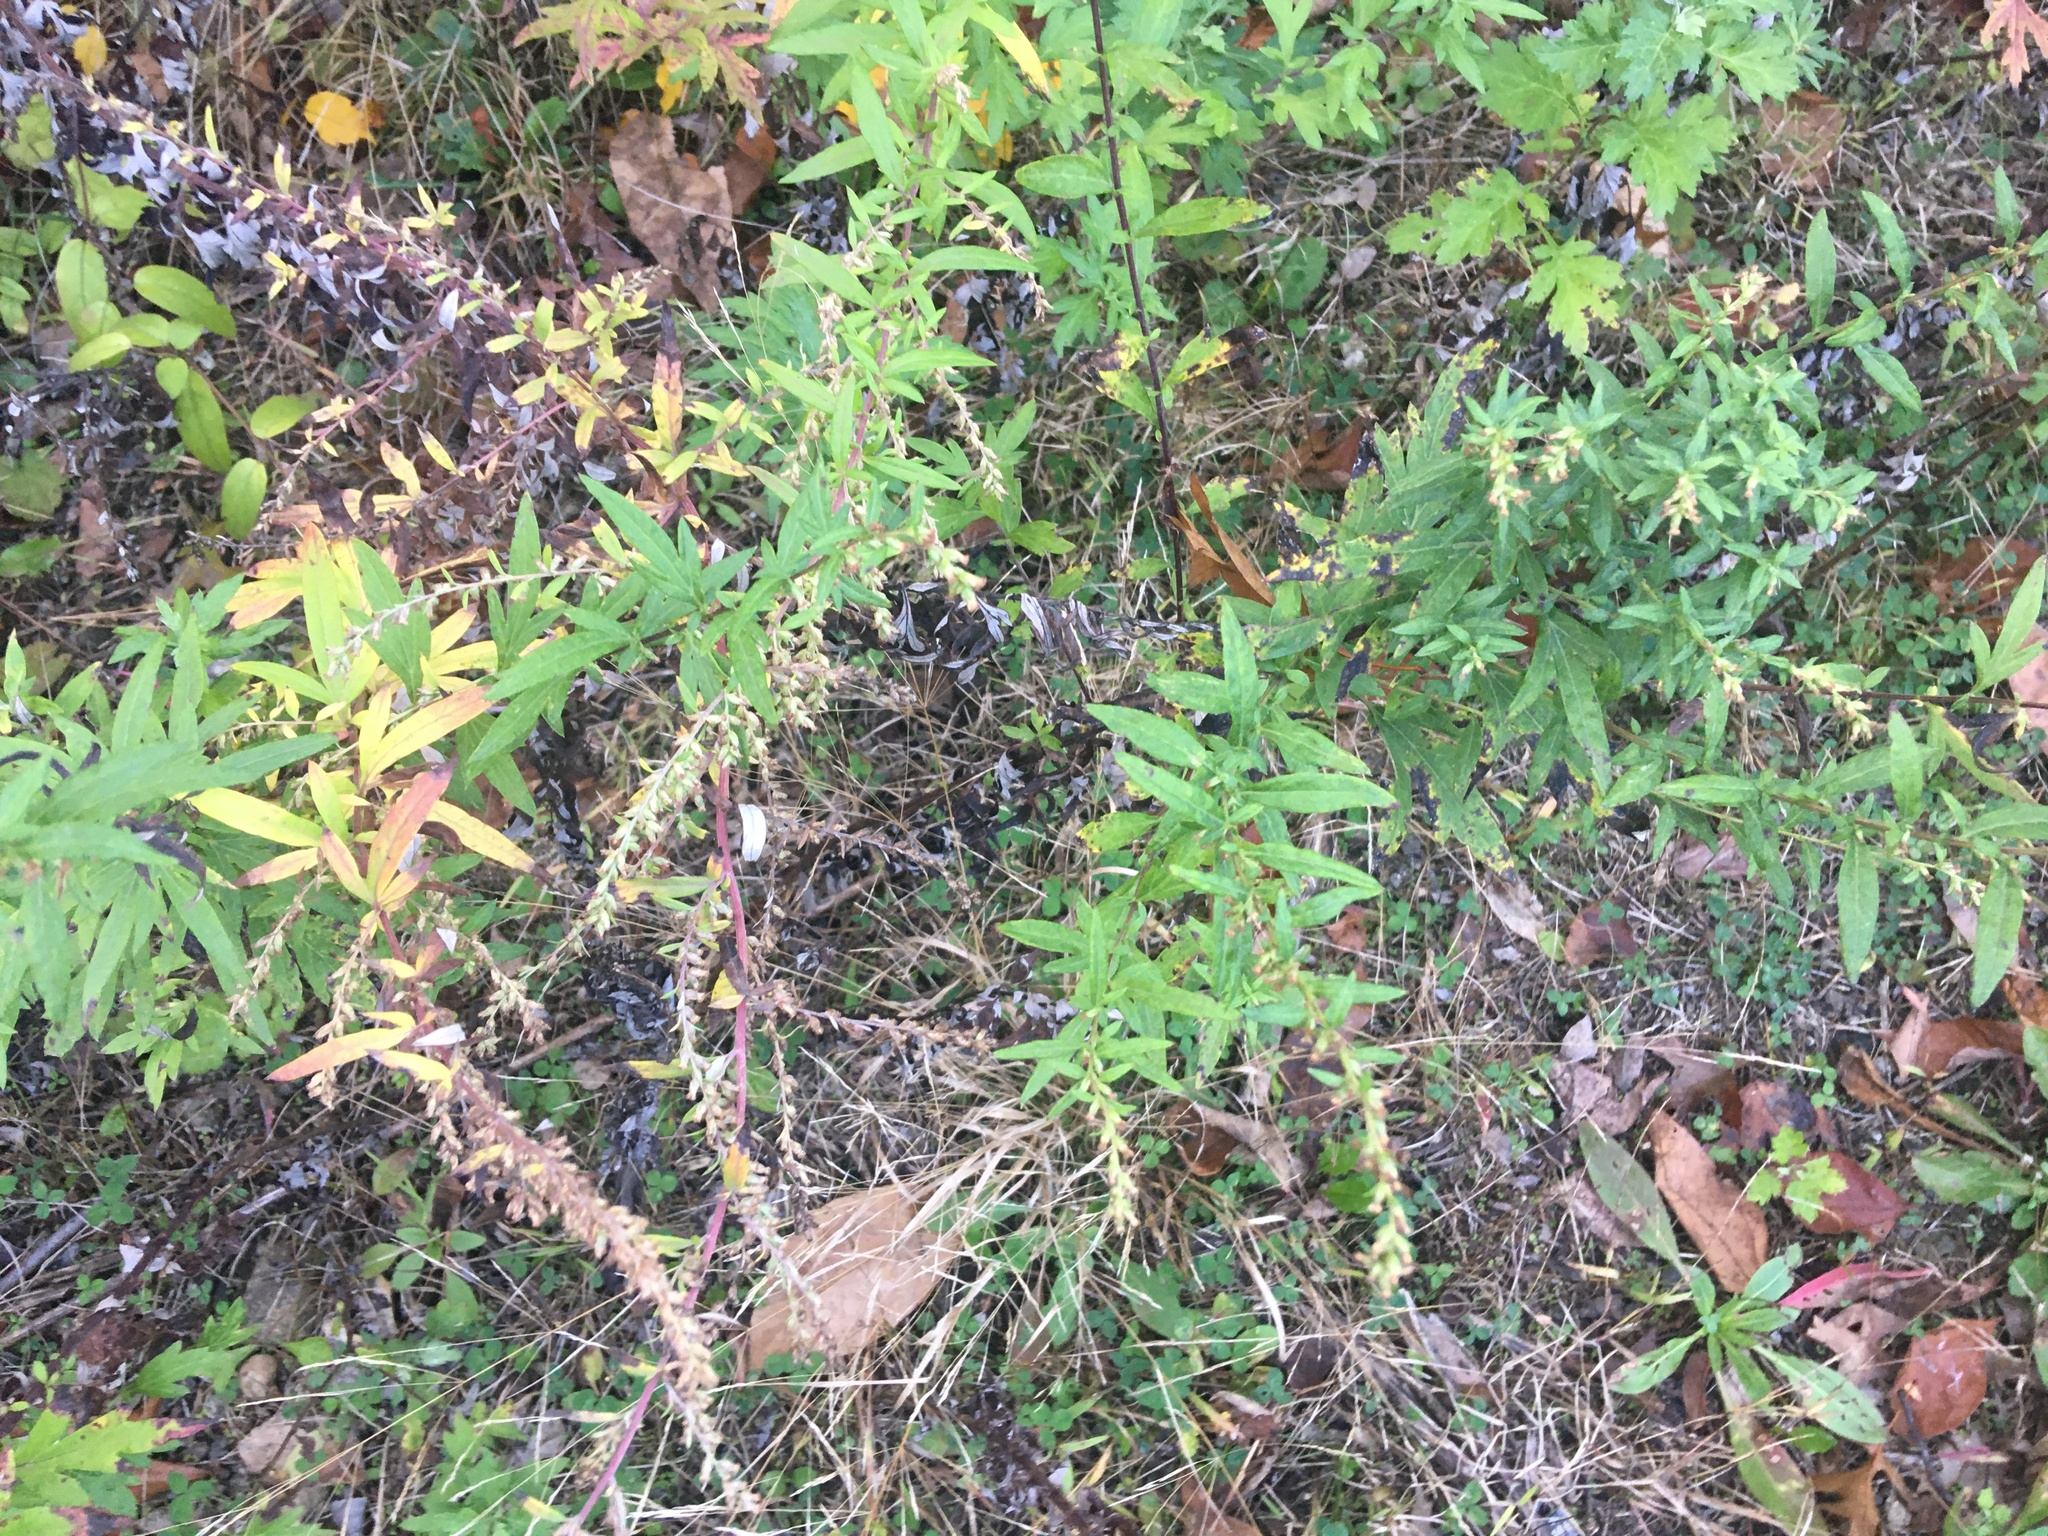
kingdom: Plantae
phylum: Tracheophyta
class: Magnoliopsida
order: Asterales
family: Asteraceae
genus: Artemisia
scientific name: Artemisia vulgaris
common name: Mugwort
